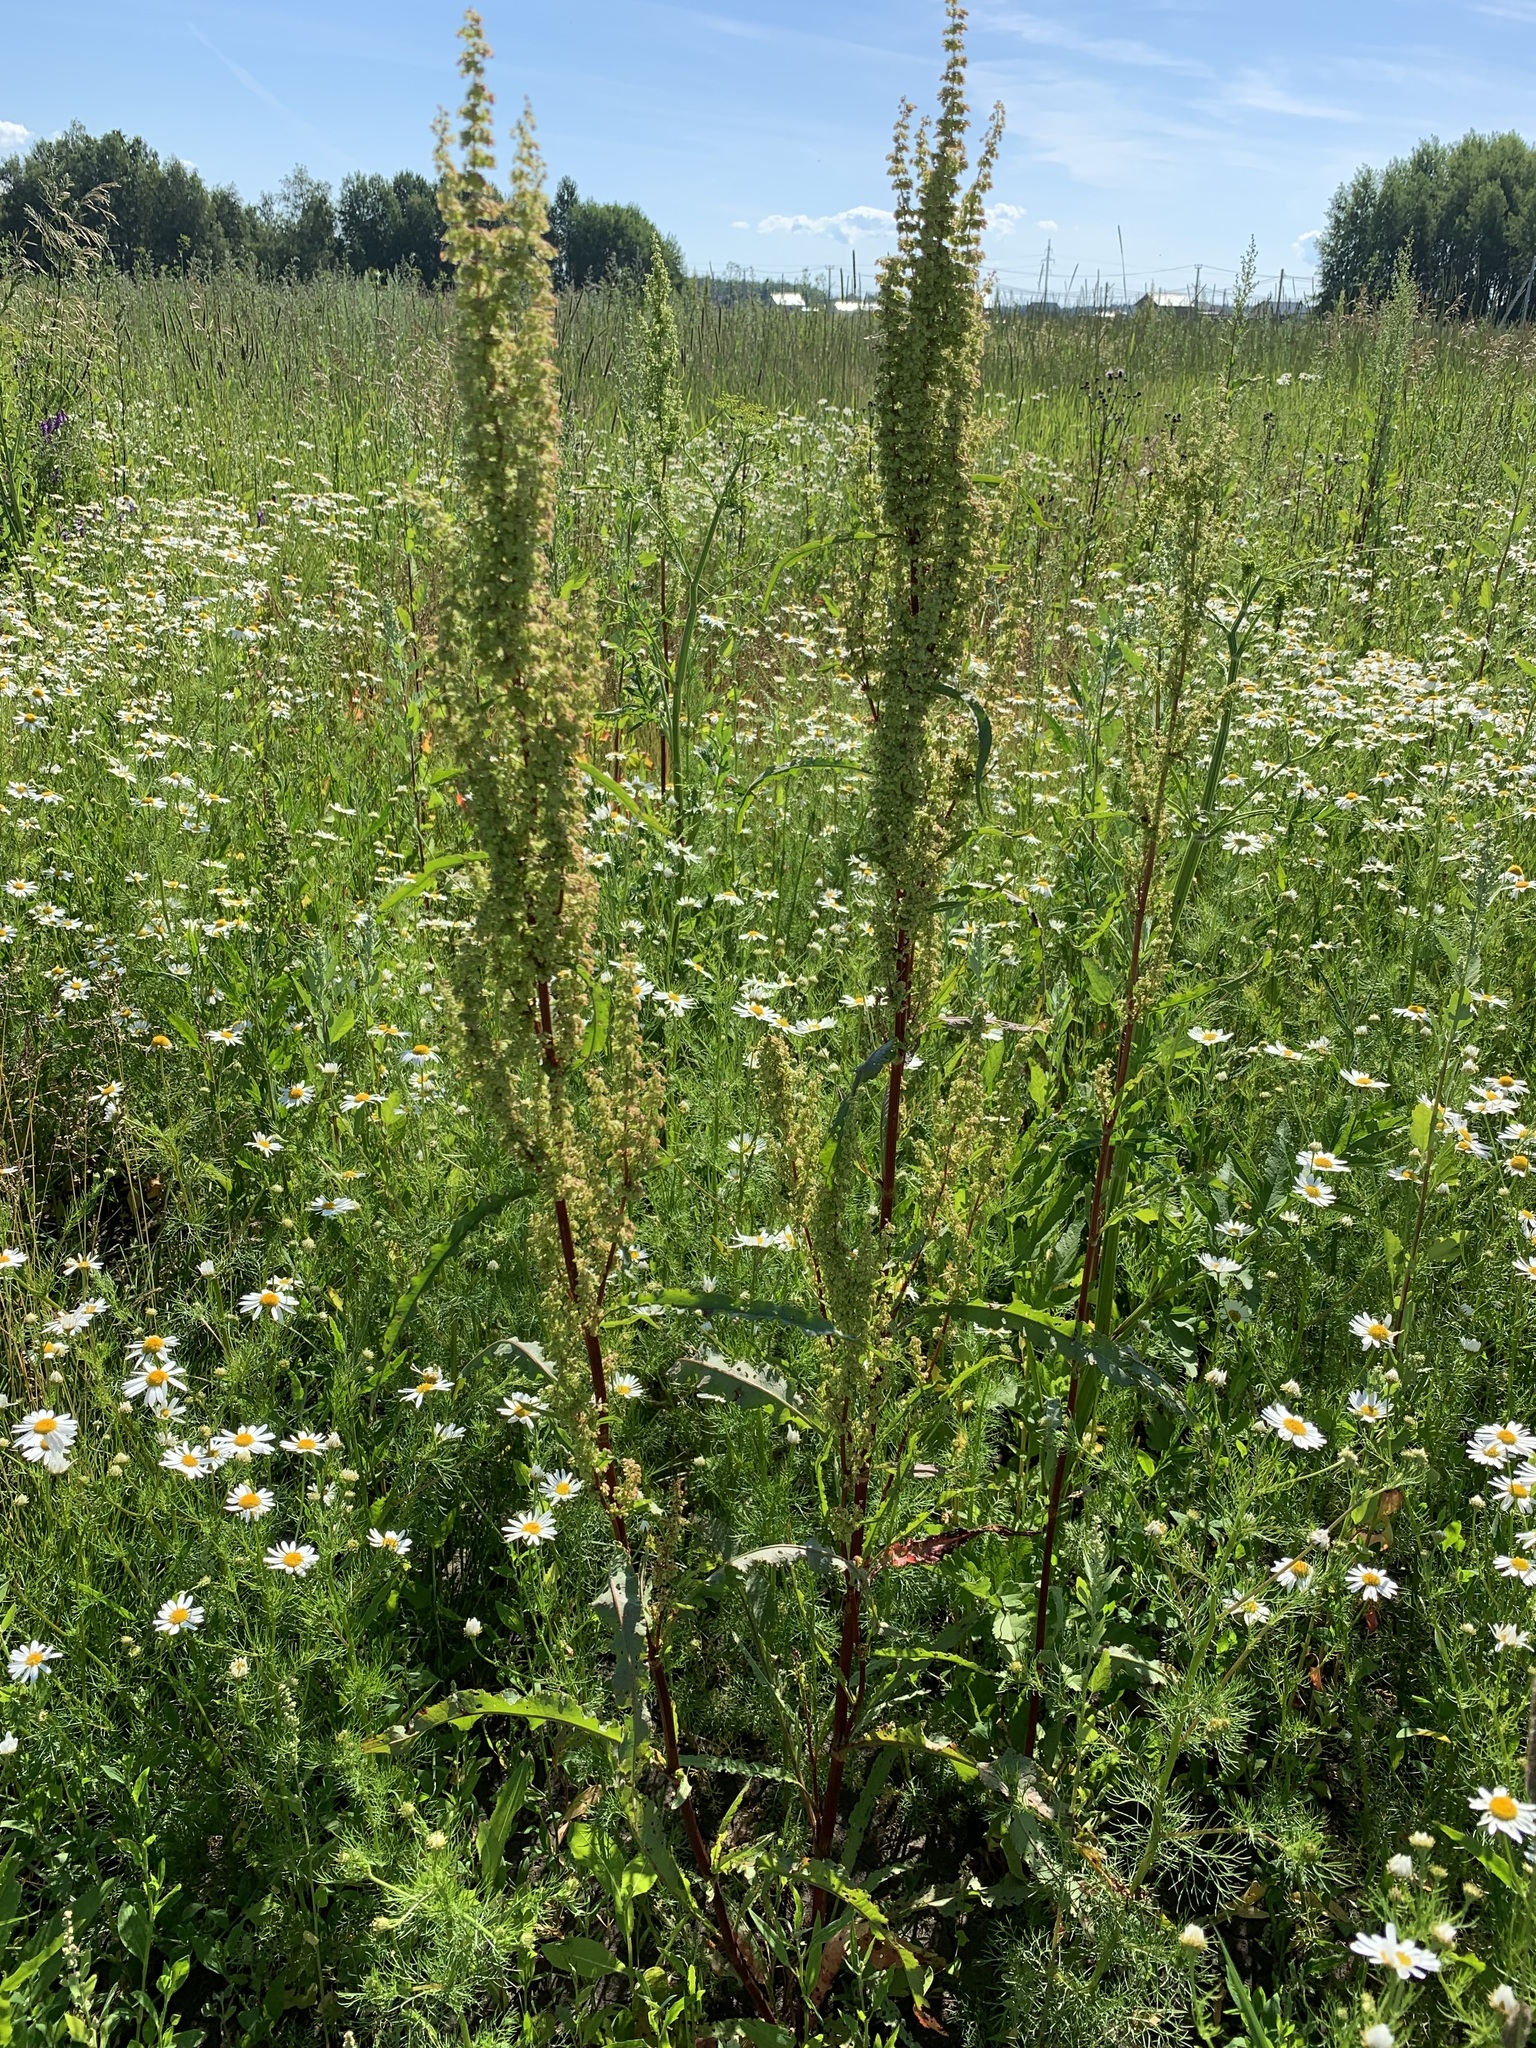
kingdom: Plantae
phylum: Tracheophyta
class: Magnoliopsida
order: Caryophyllales
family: Polygonaceae
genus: Rumex
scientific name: Rumex pseudonatronatus
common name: Field dock
